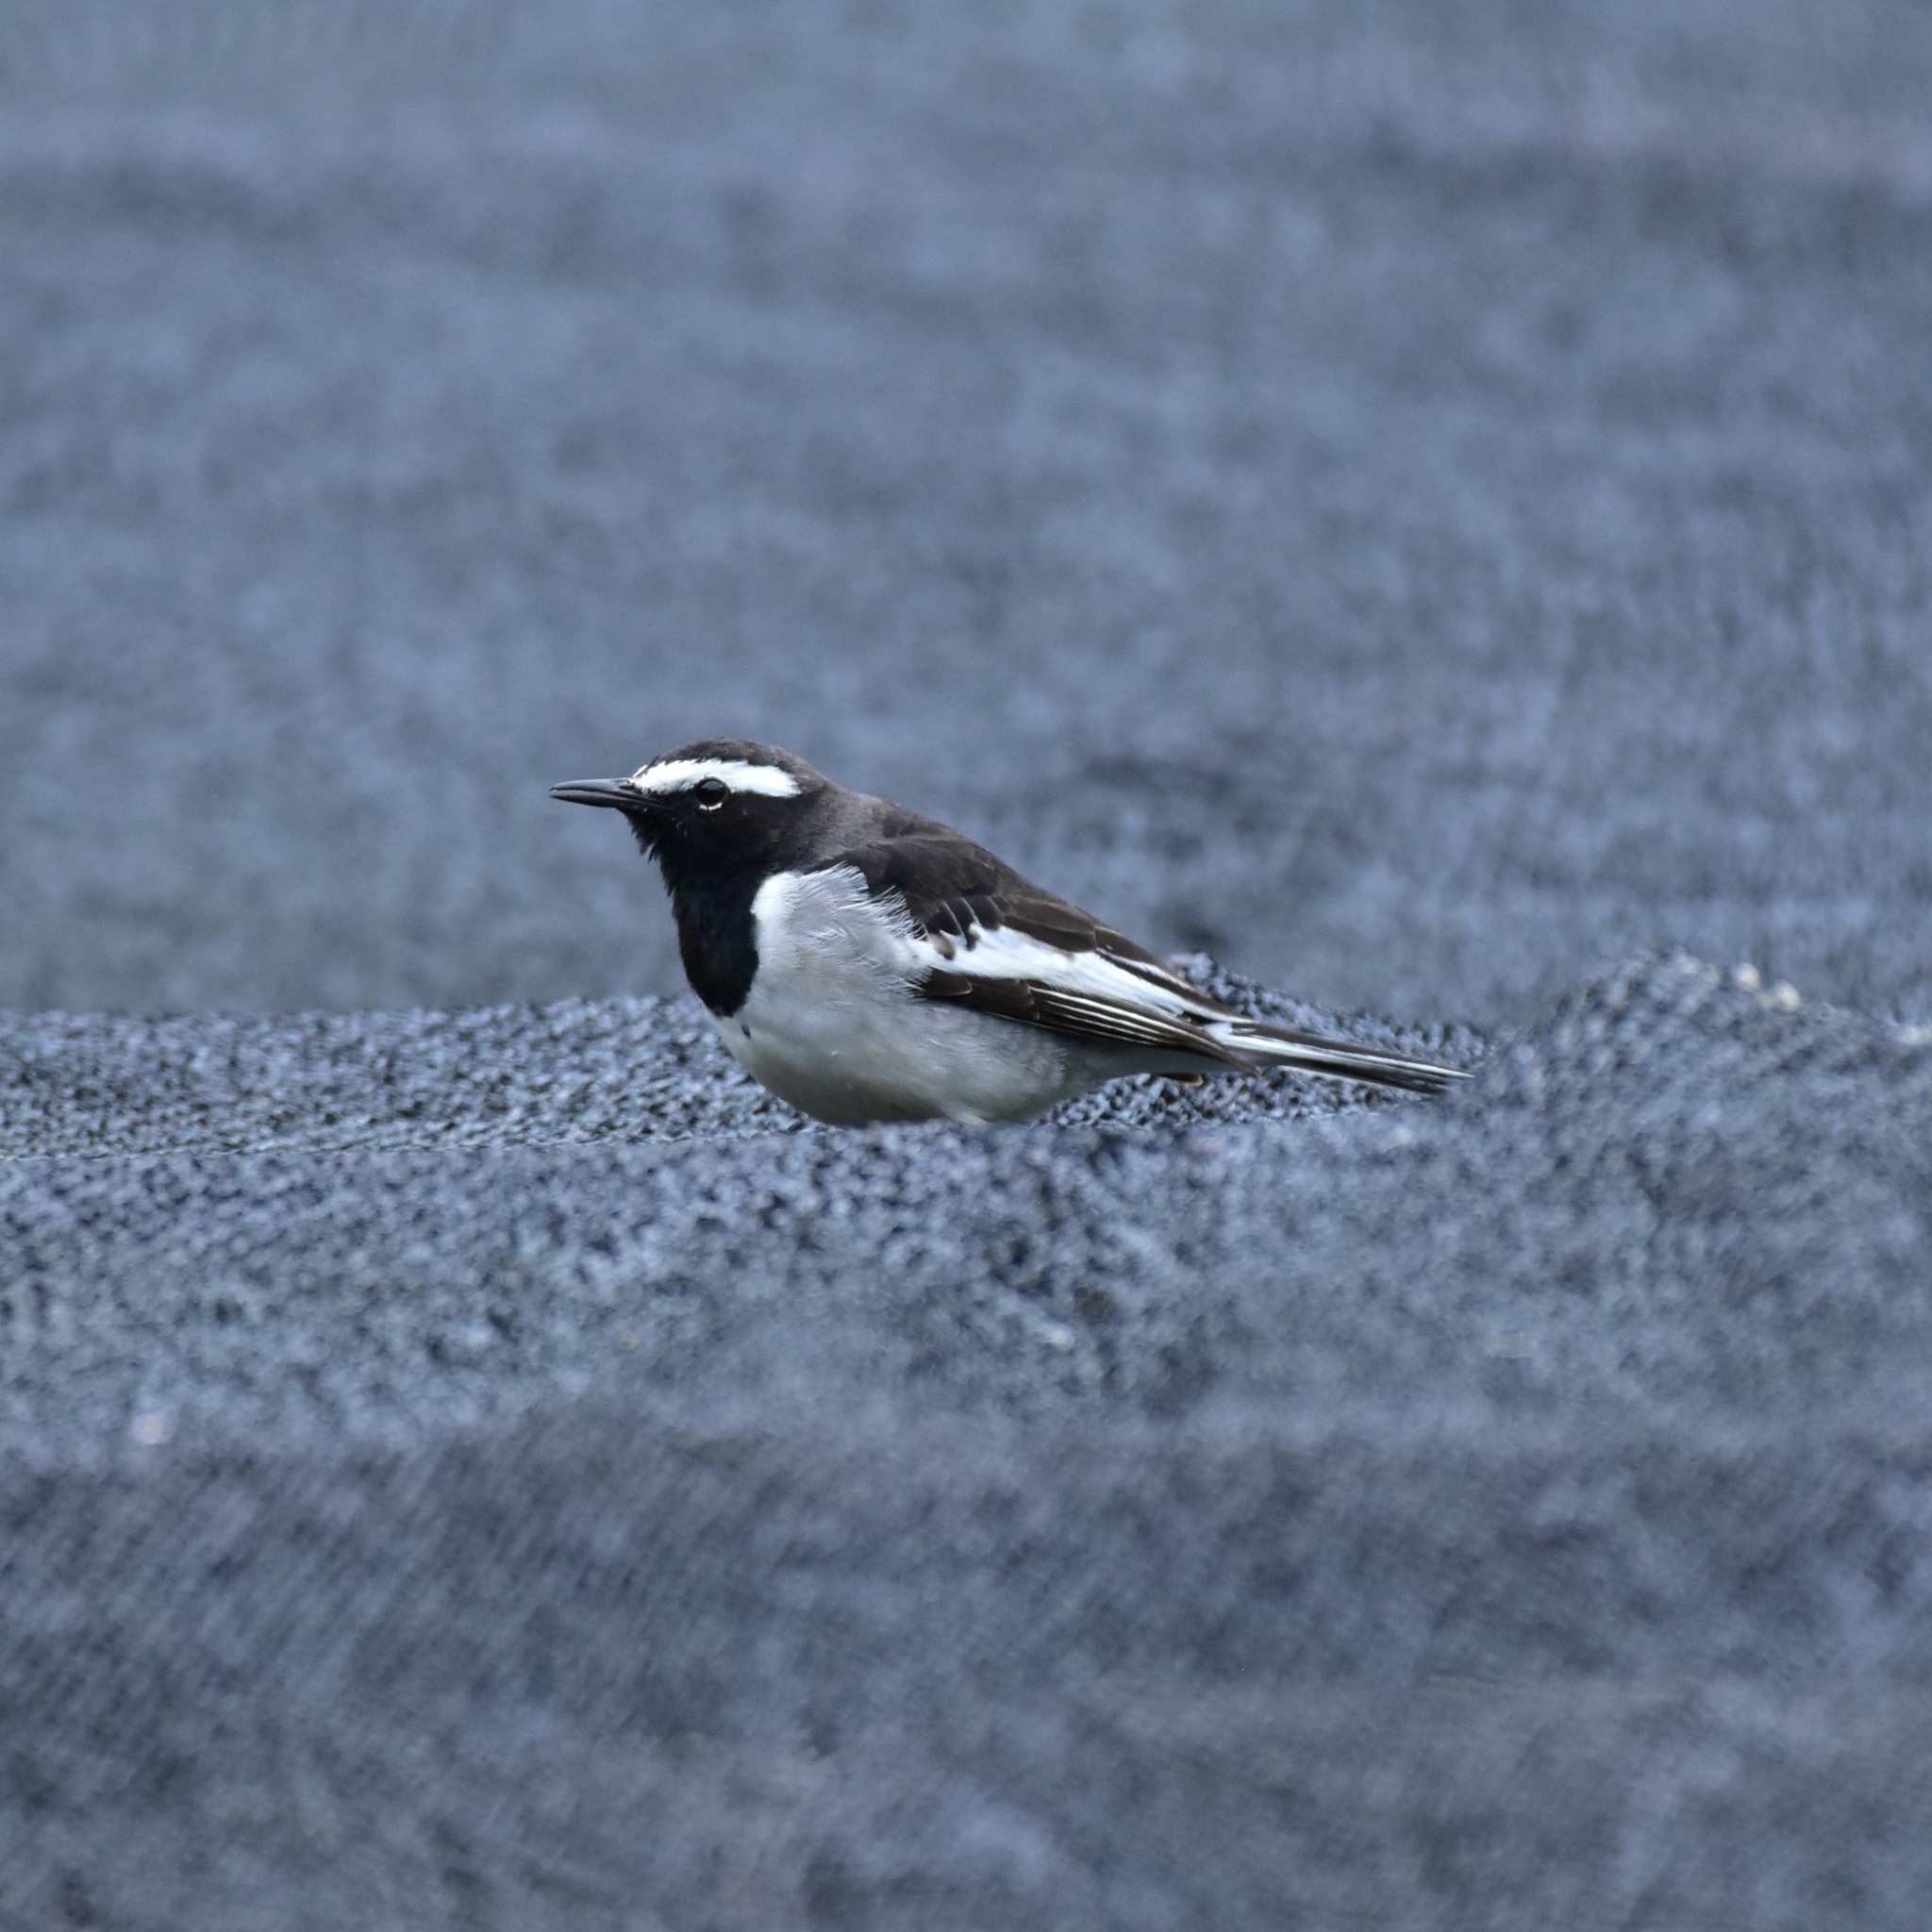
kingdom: Animalia
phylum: Chordata
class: Aves
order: Passeriformes
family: Motacillidae
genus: Motacilla
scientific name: Motacilla maderaspatensis
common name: White-browed wagtail
